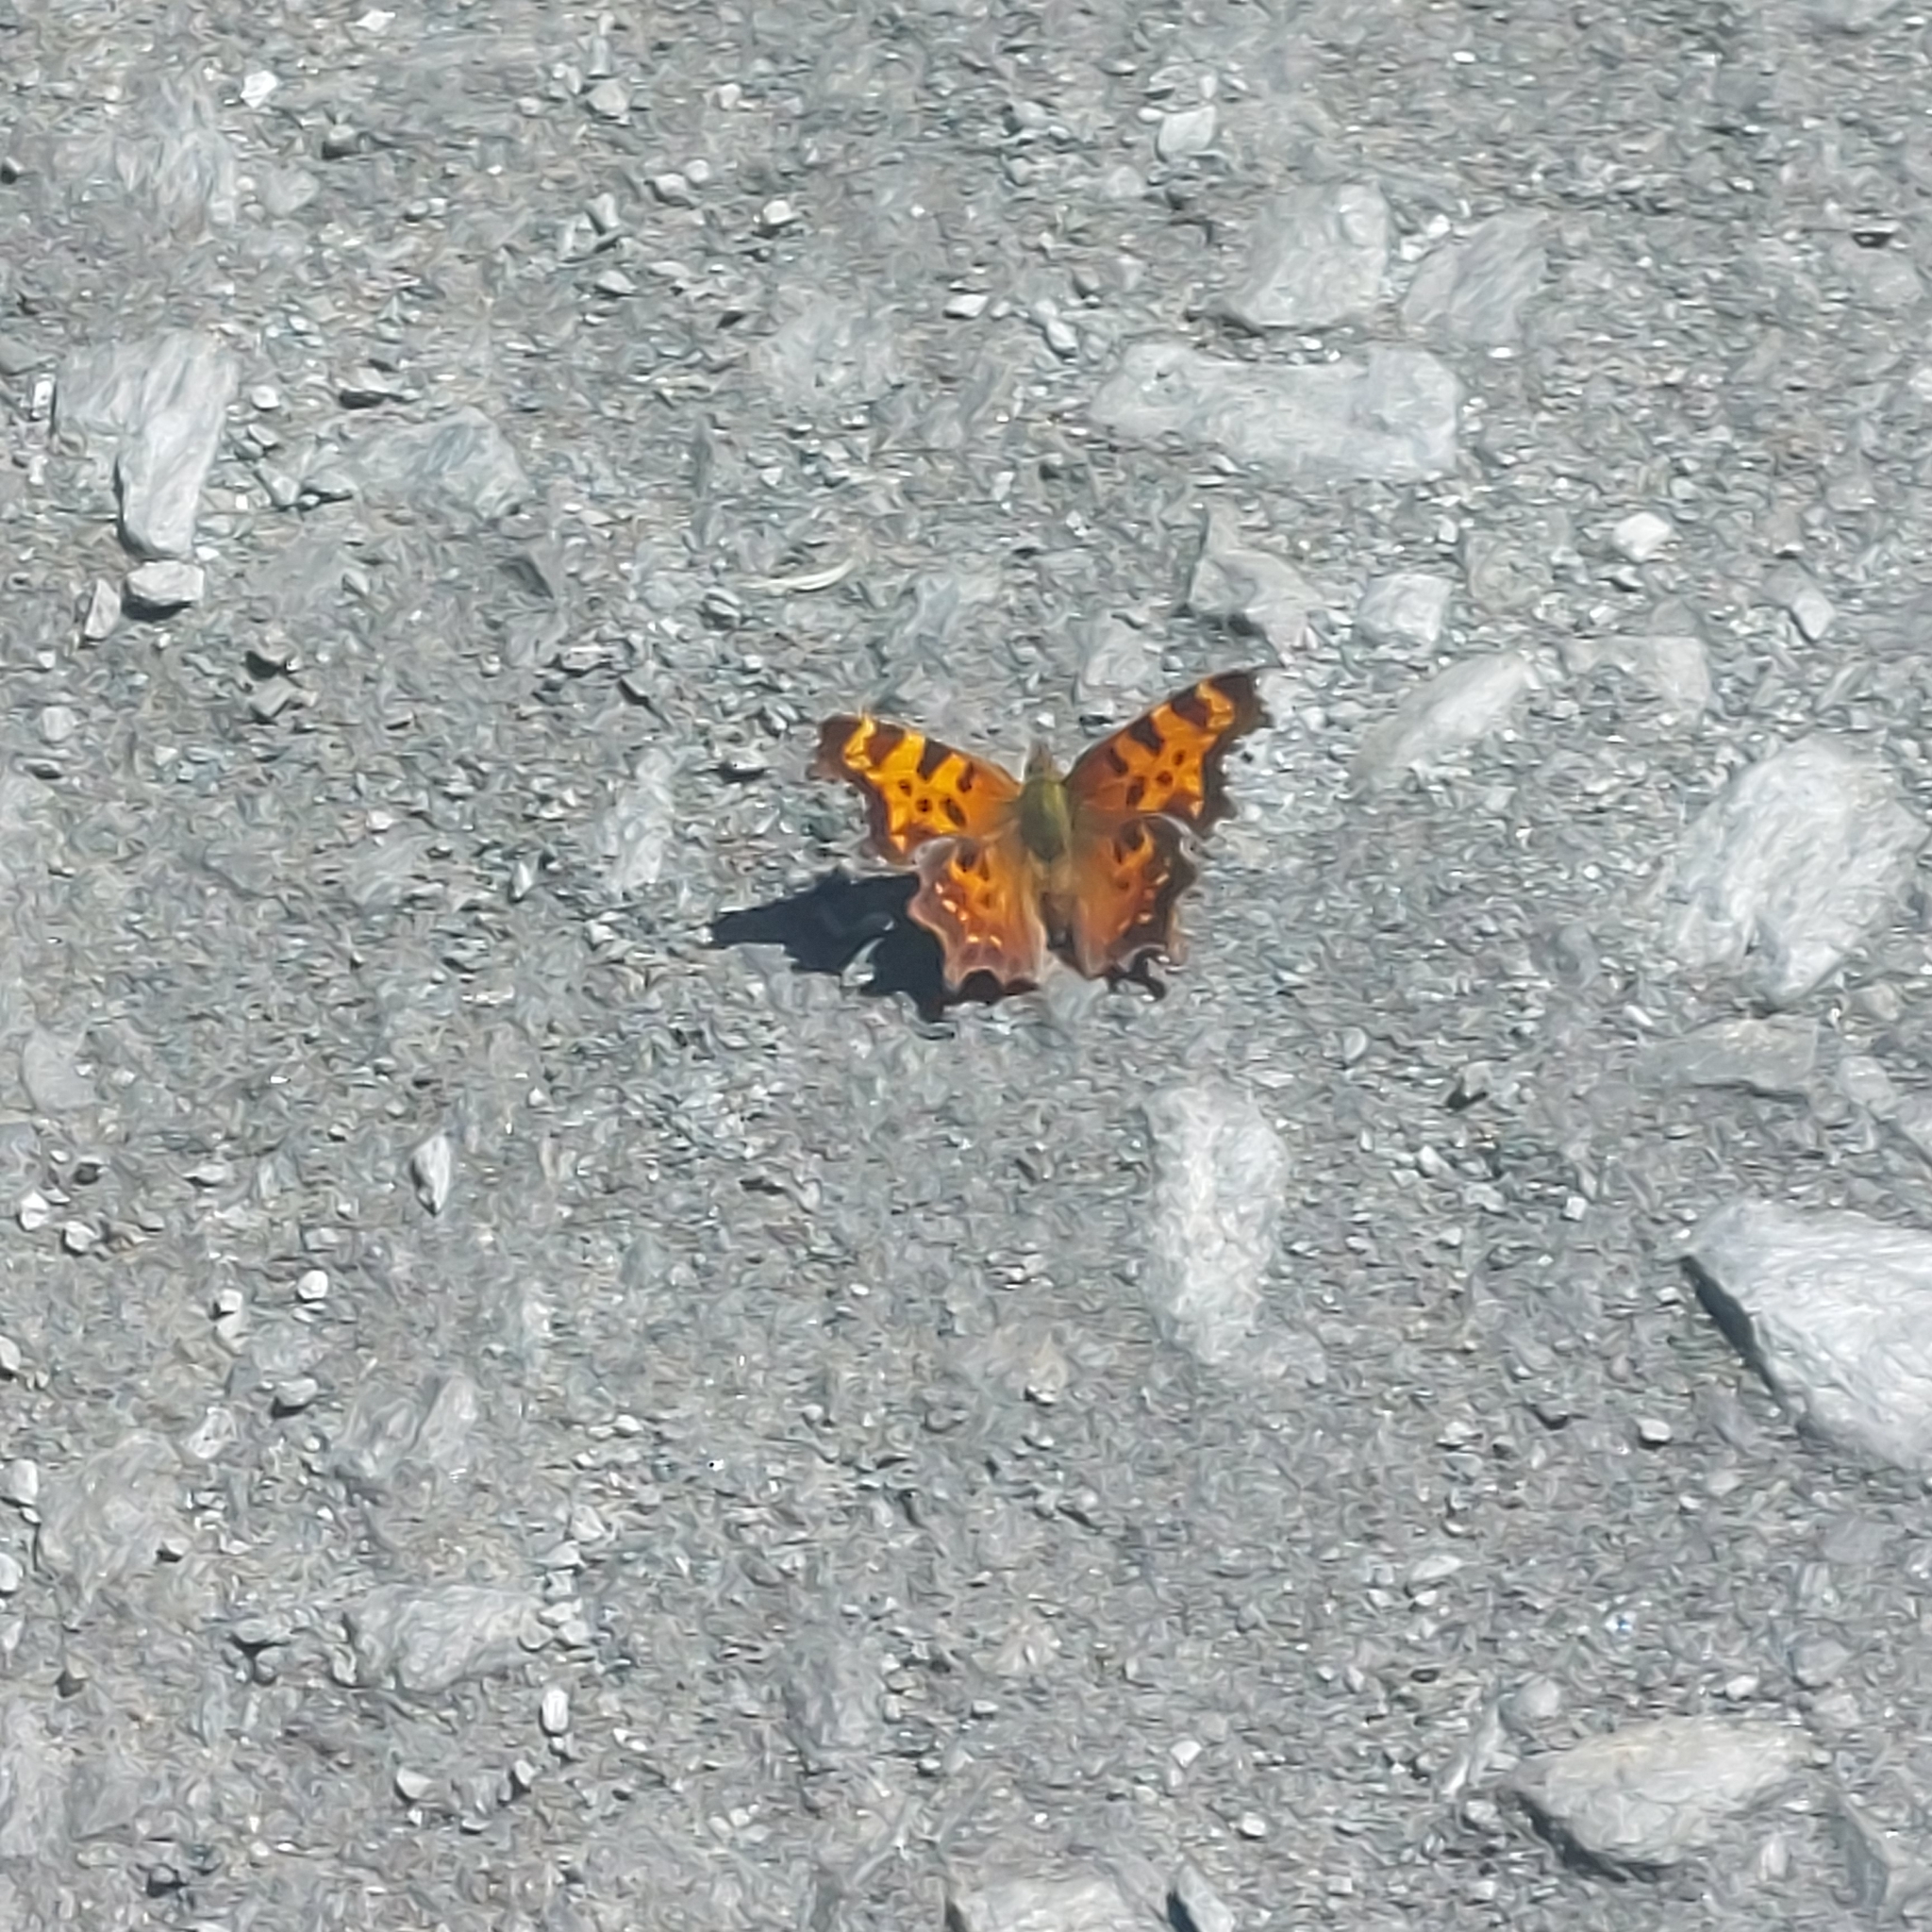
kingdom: Animalia
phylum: Arthropoda
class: Insecta
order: Lepidoptera
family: Nymphalidae
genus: Polygonia
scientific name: Polygonia faunus
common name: Green comma
